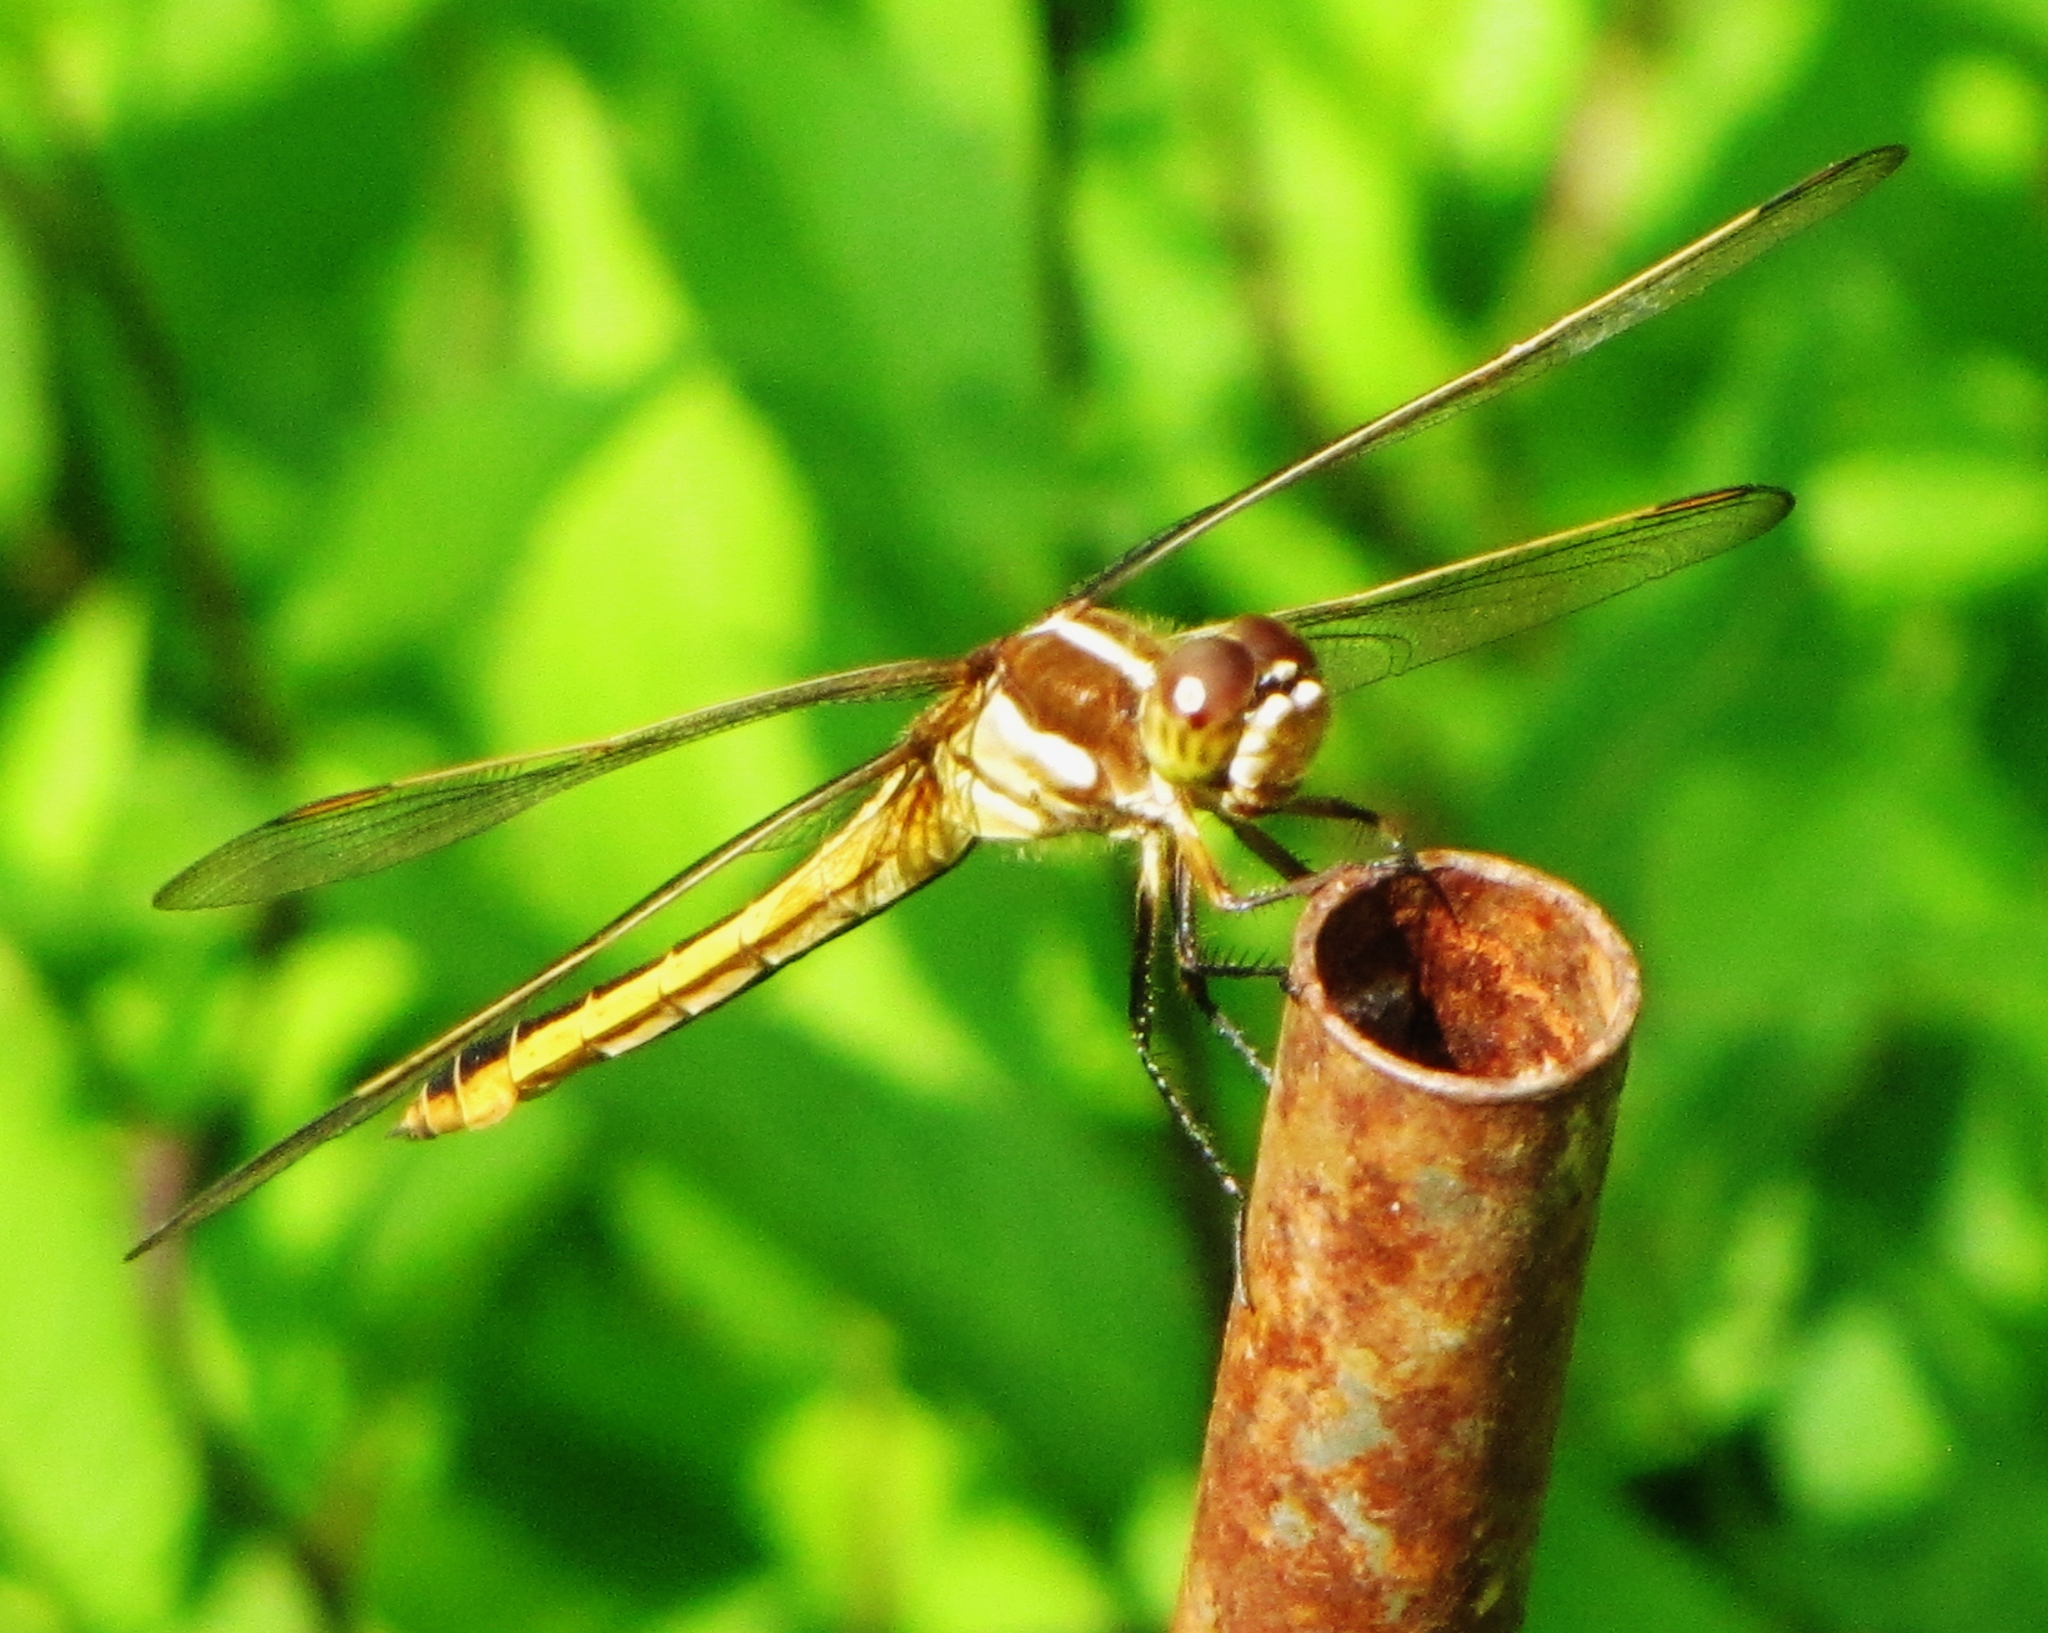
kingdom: Animalia
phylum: Arthropoda
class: Insecta
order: Odonata
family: Libellulidae
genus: Libellula
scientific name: Libellula auripennis
